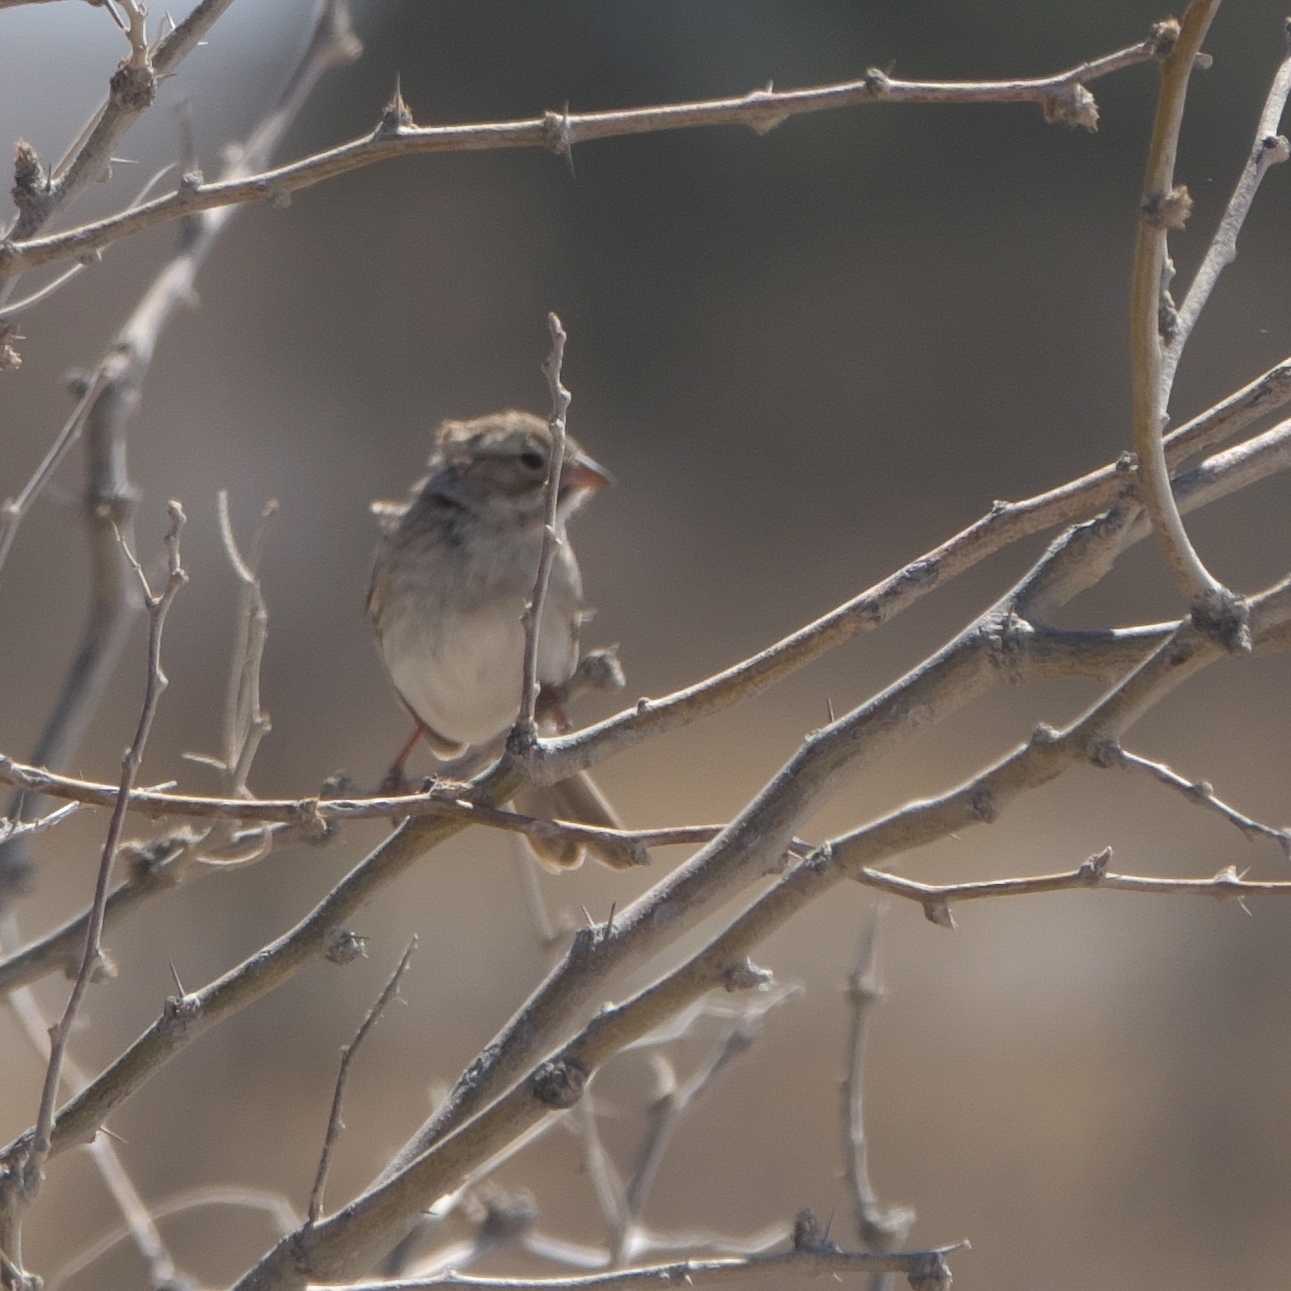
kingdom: Animalia
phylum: Chordata
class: Aves
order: Passeriformes
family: Passerellidae
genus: Spizella
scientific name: Spizella breweri
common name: Brewer's sparrow
